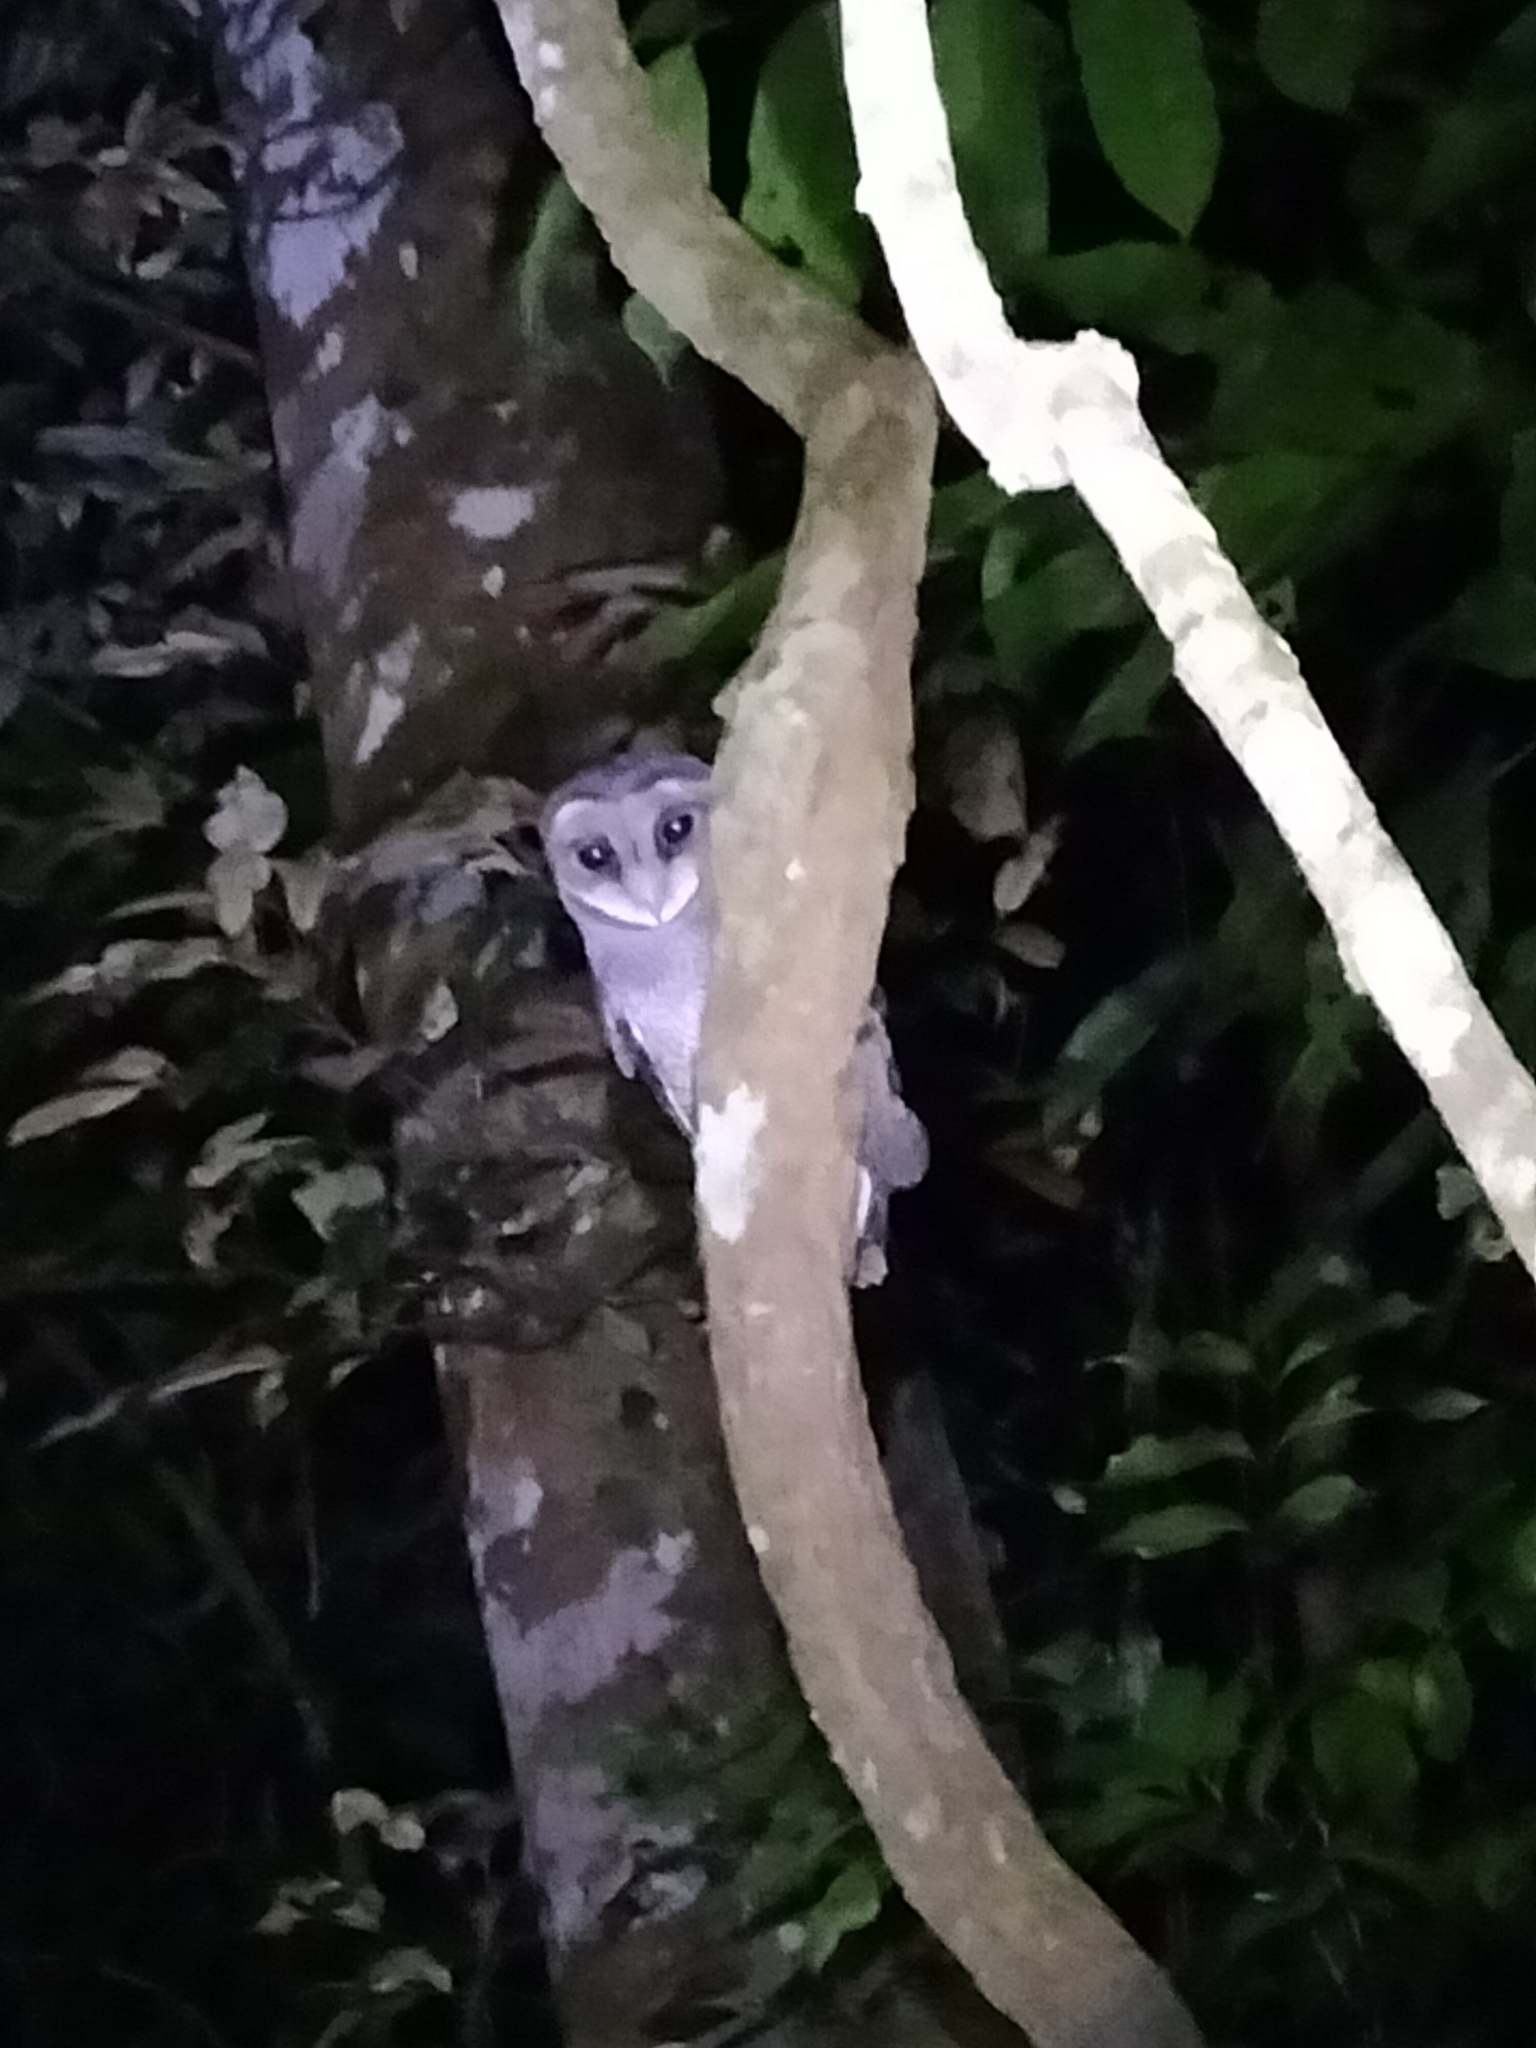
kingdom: Animalia
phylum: Chordata
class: Aves
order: Strigiformes
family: Tytonidae
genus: Tyto
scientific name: Tyto multipunctata
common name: Lesser sooty owl
